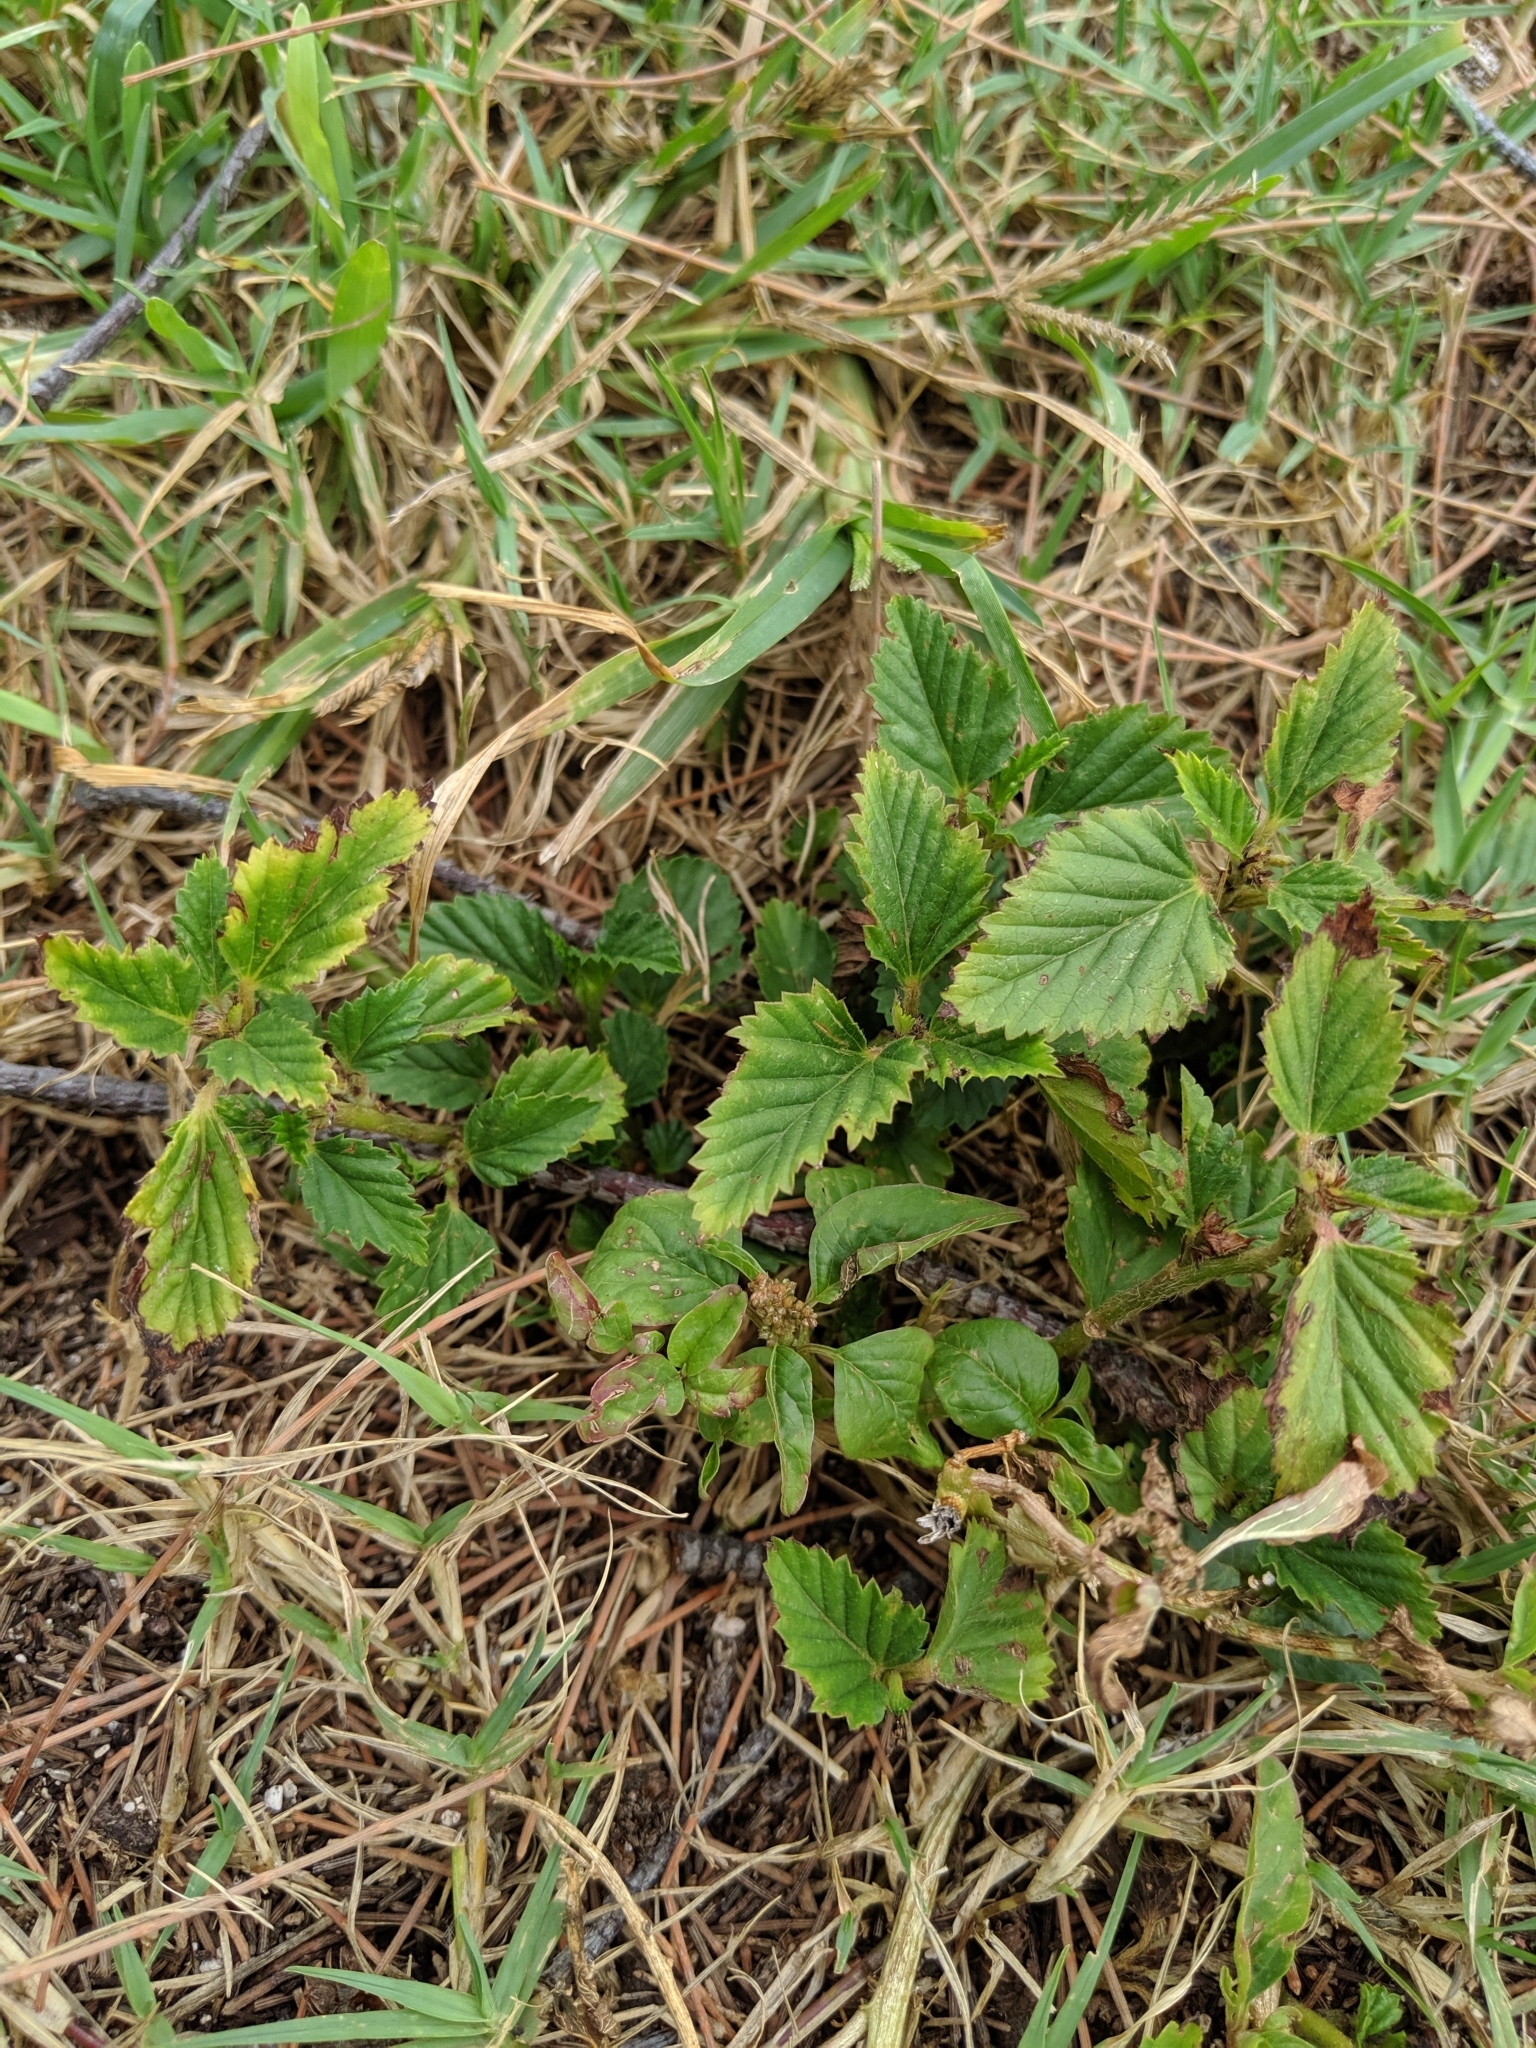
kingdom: Plantae
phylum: Tracheophyta
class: Magnoliopsida
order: Malvales
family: Malvaceae
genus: Malvastrum
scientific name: Malvastrum coromandelianum
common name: Threelobe false mallow
